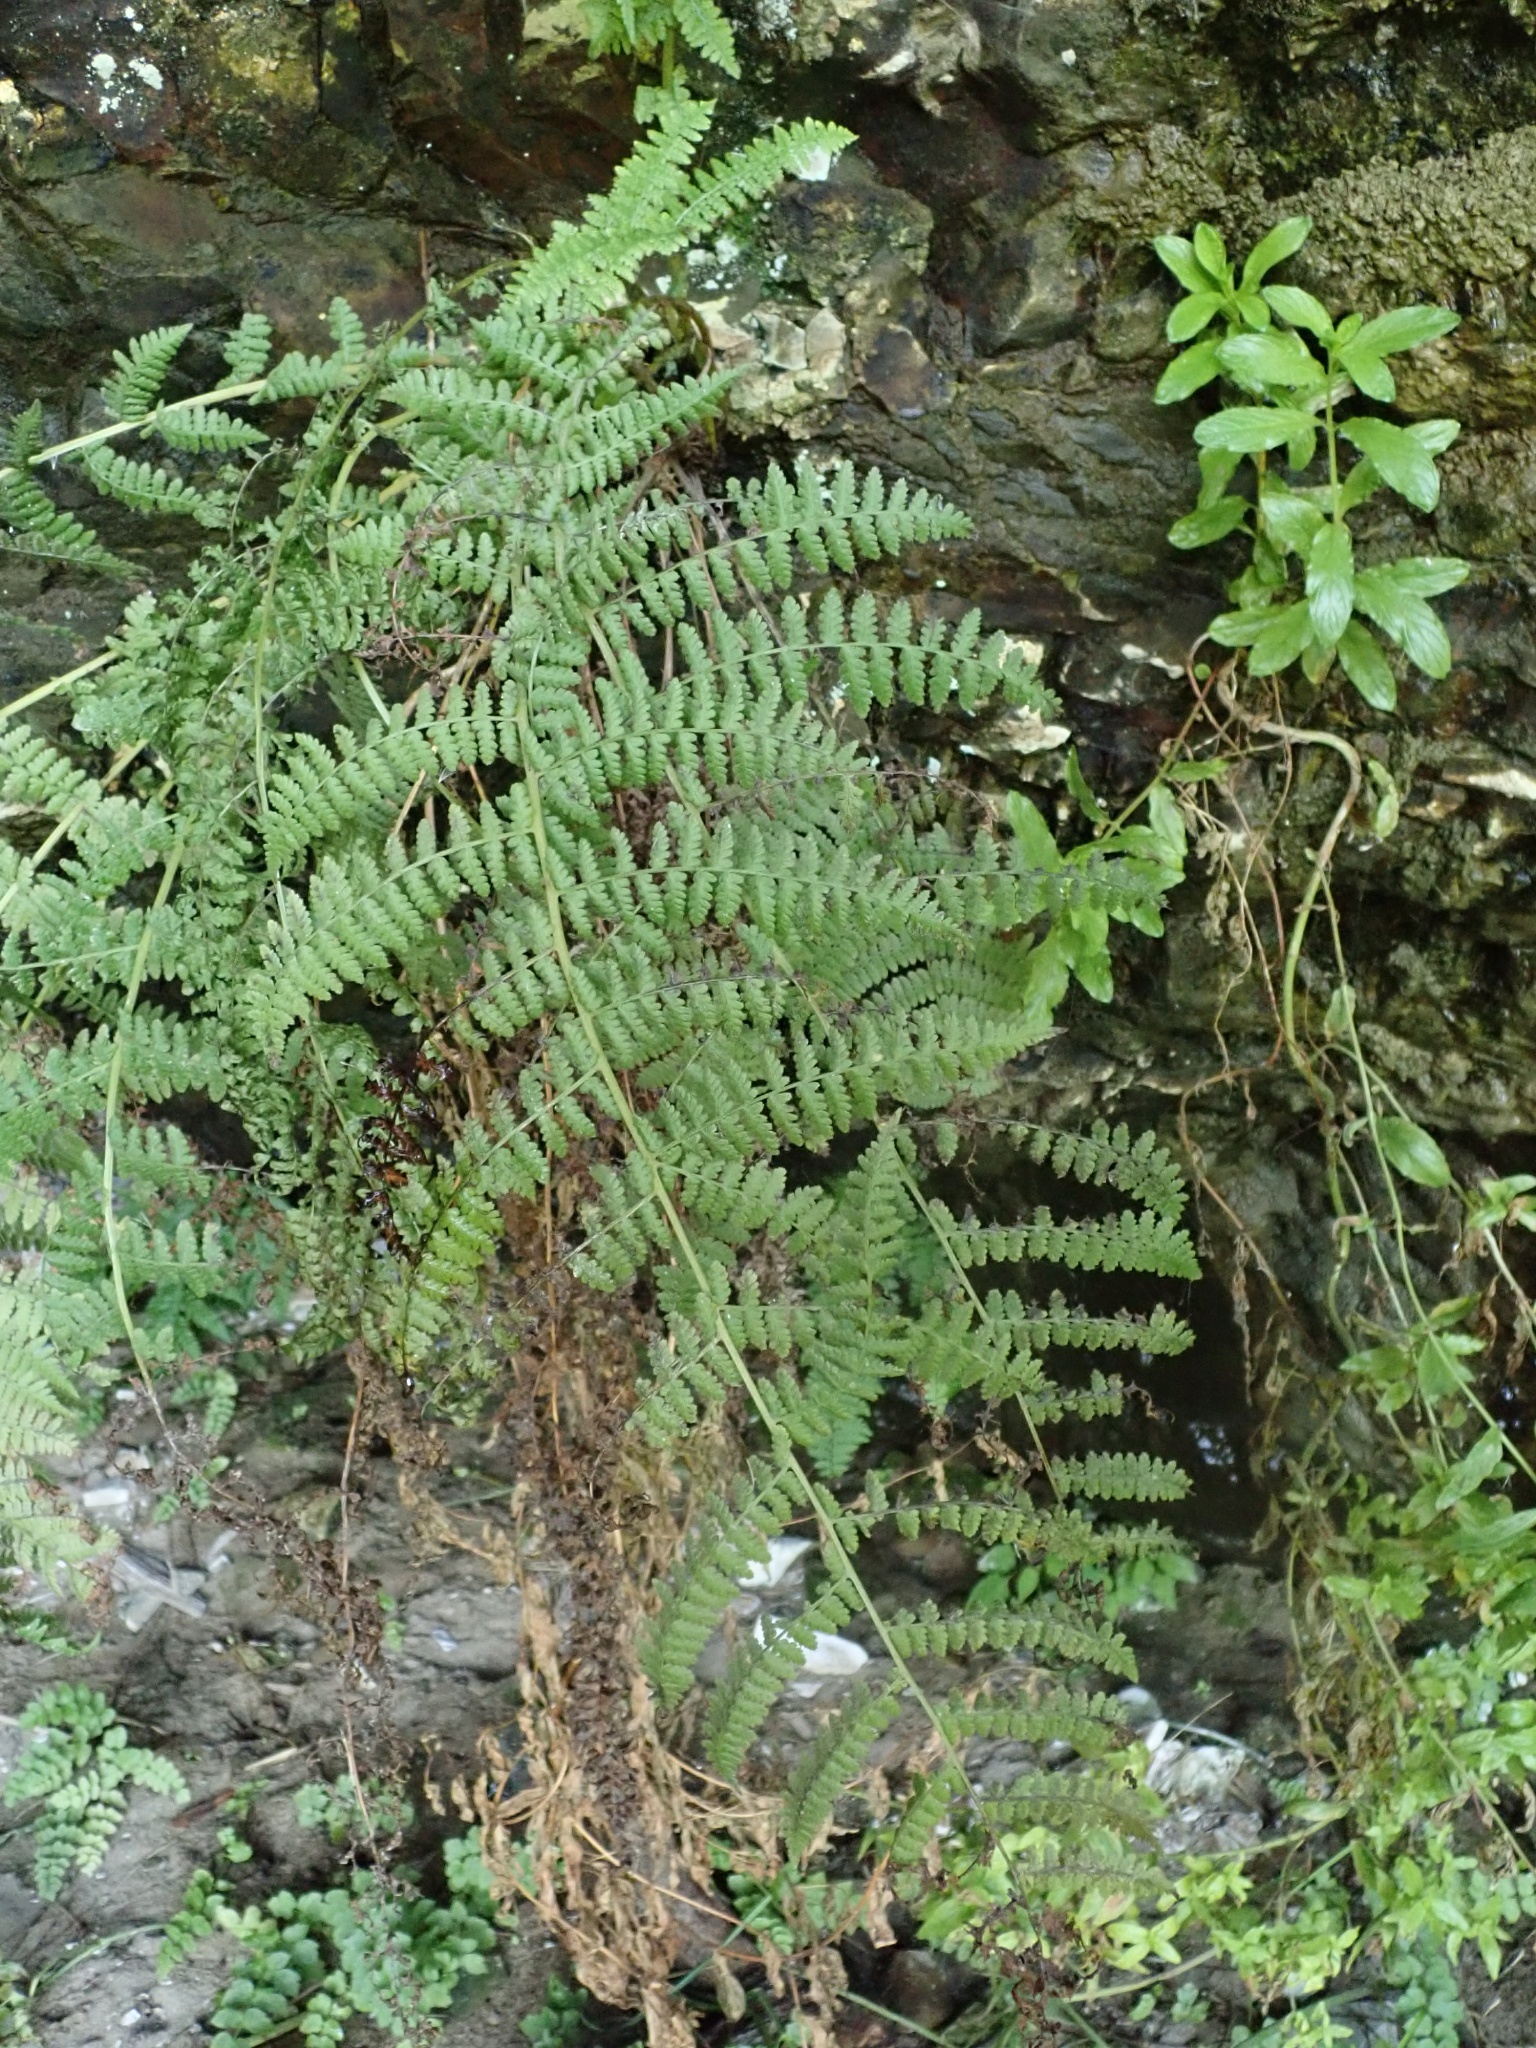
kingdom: Plantae
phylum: Tracheophyta
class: Polypodiopsida
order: Polypodiales
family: Athyriaceae
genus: Athyrium
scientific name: Athyrium cyclosorum
